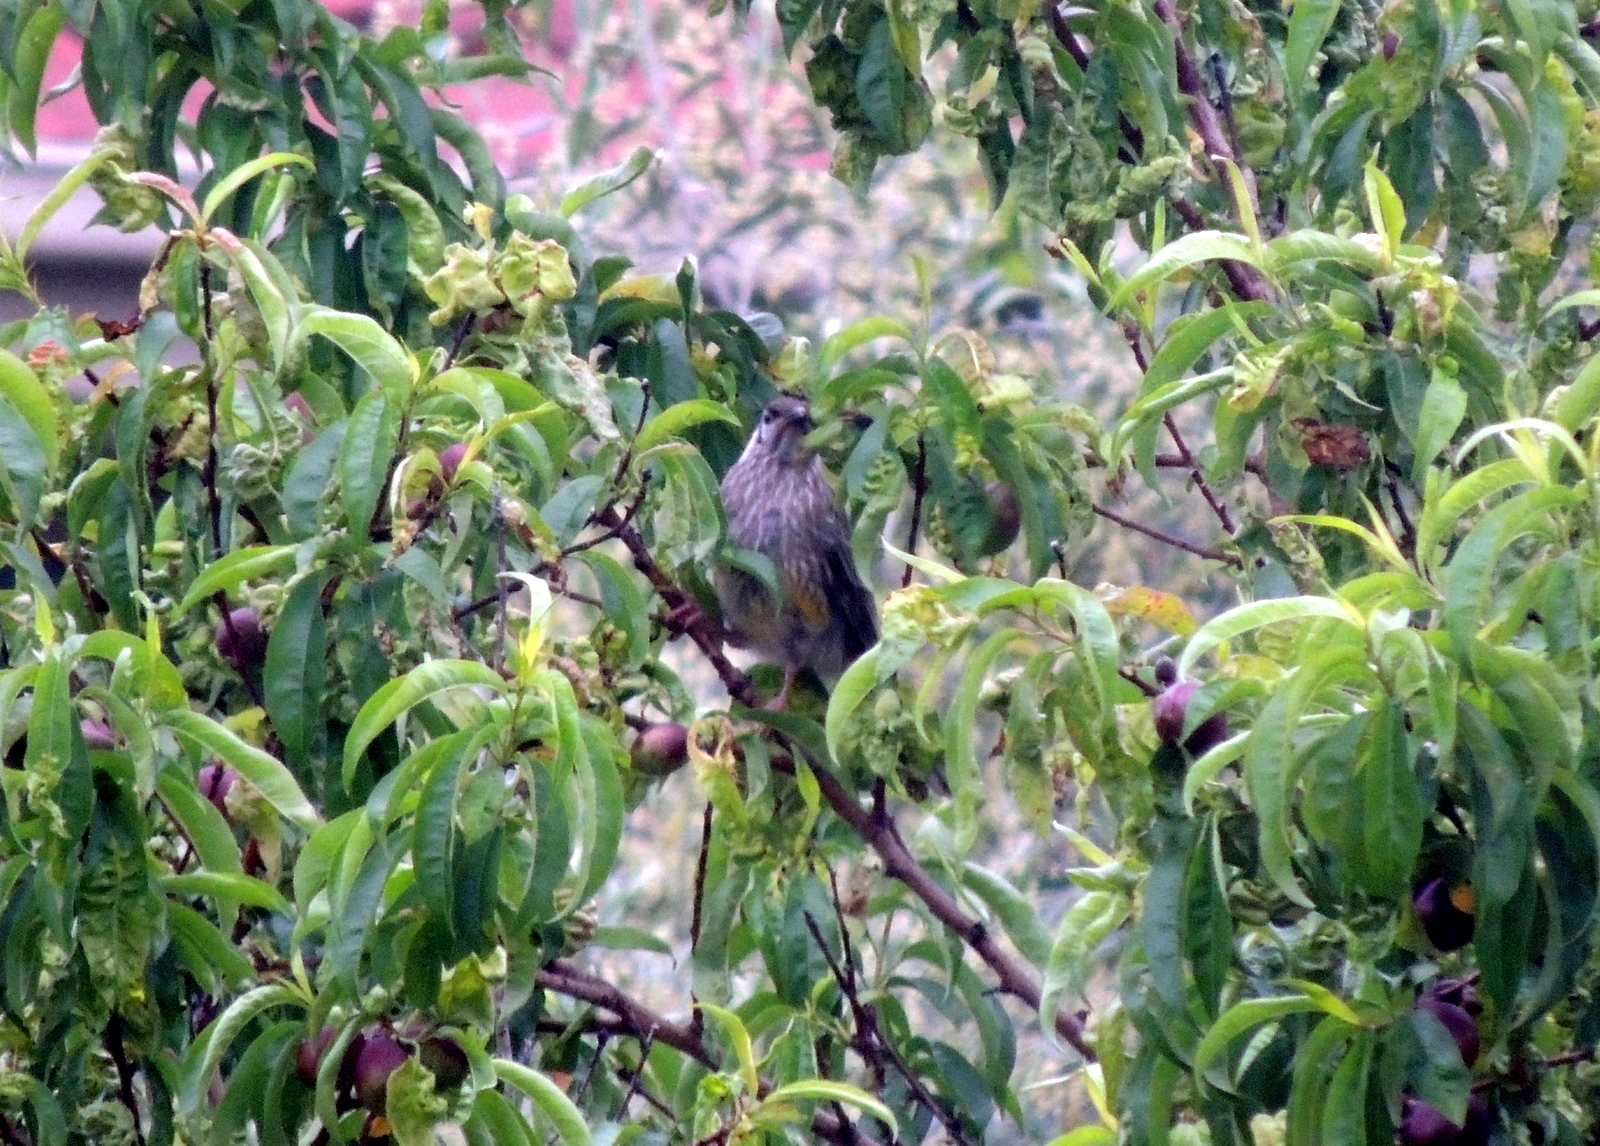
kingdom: Animalia
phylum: Chordata
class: Aves
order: Passeriformes
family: Meliphagidae
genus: Anthochaera
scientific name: Anthochaera carunculata
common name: Red wattlebird
